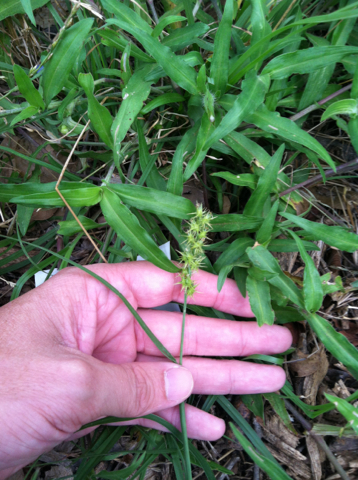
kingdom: Plantae
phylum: Tracheophyta
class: Liliopsida
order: Poales
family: Poaceae
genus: Cenchrus
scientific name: Cenchrus spinifex
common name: Coast sandbur
